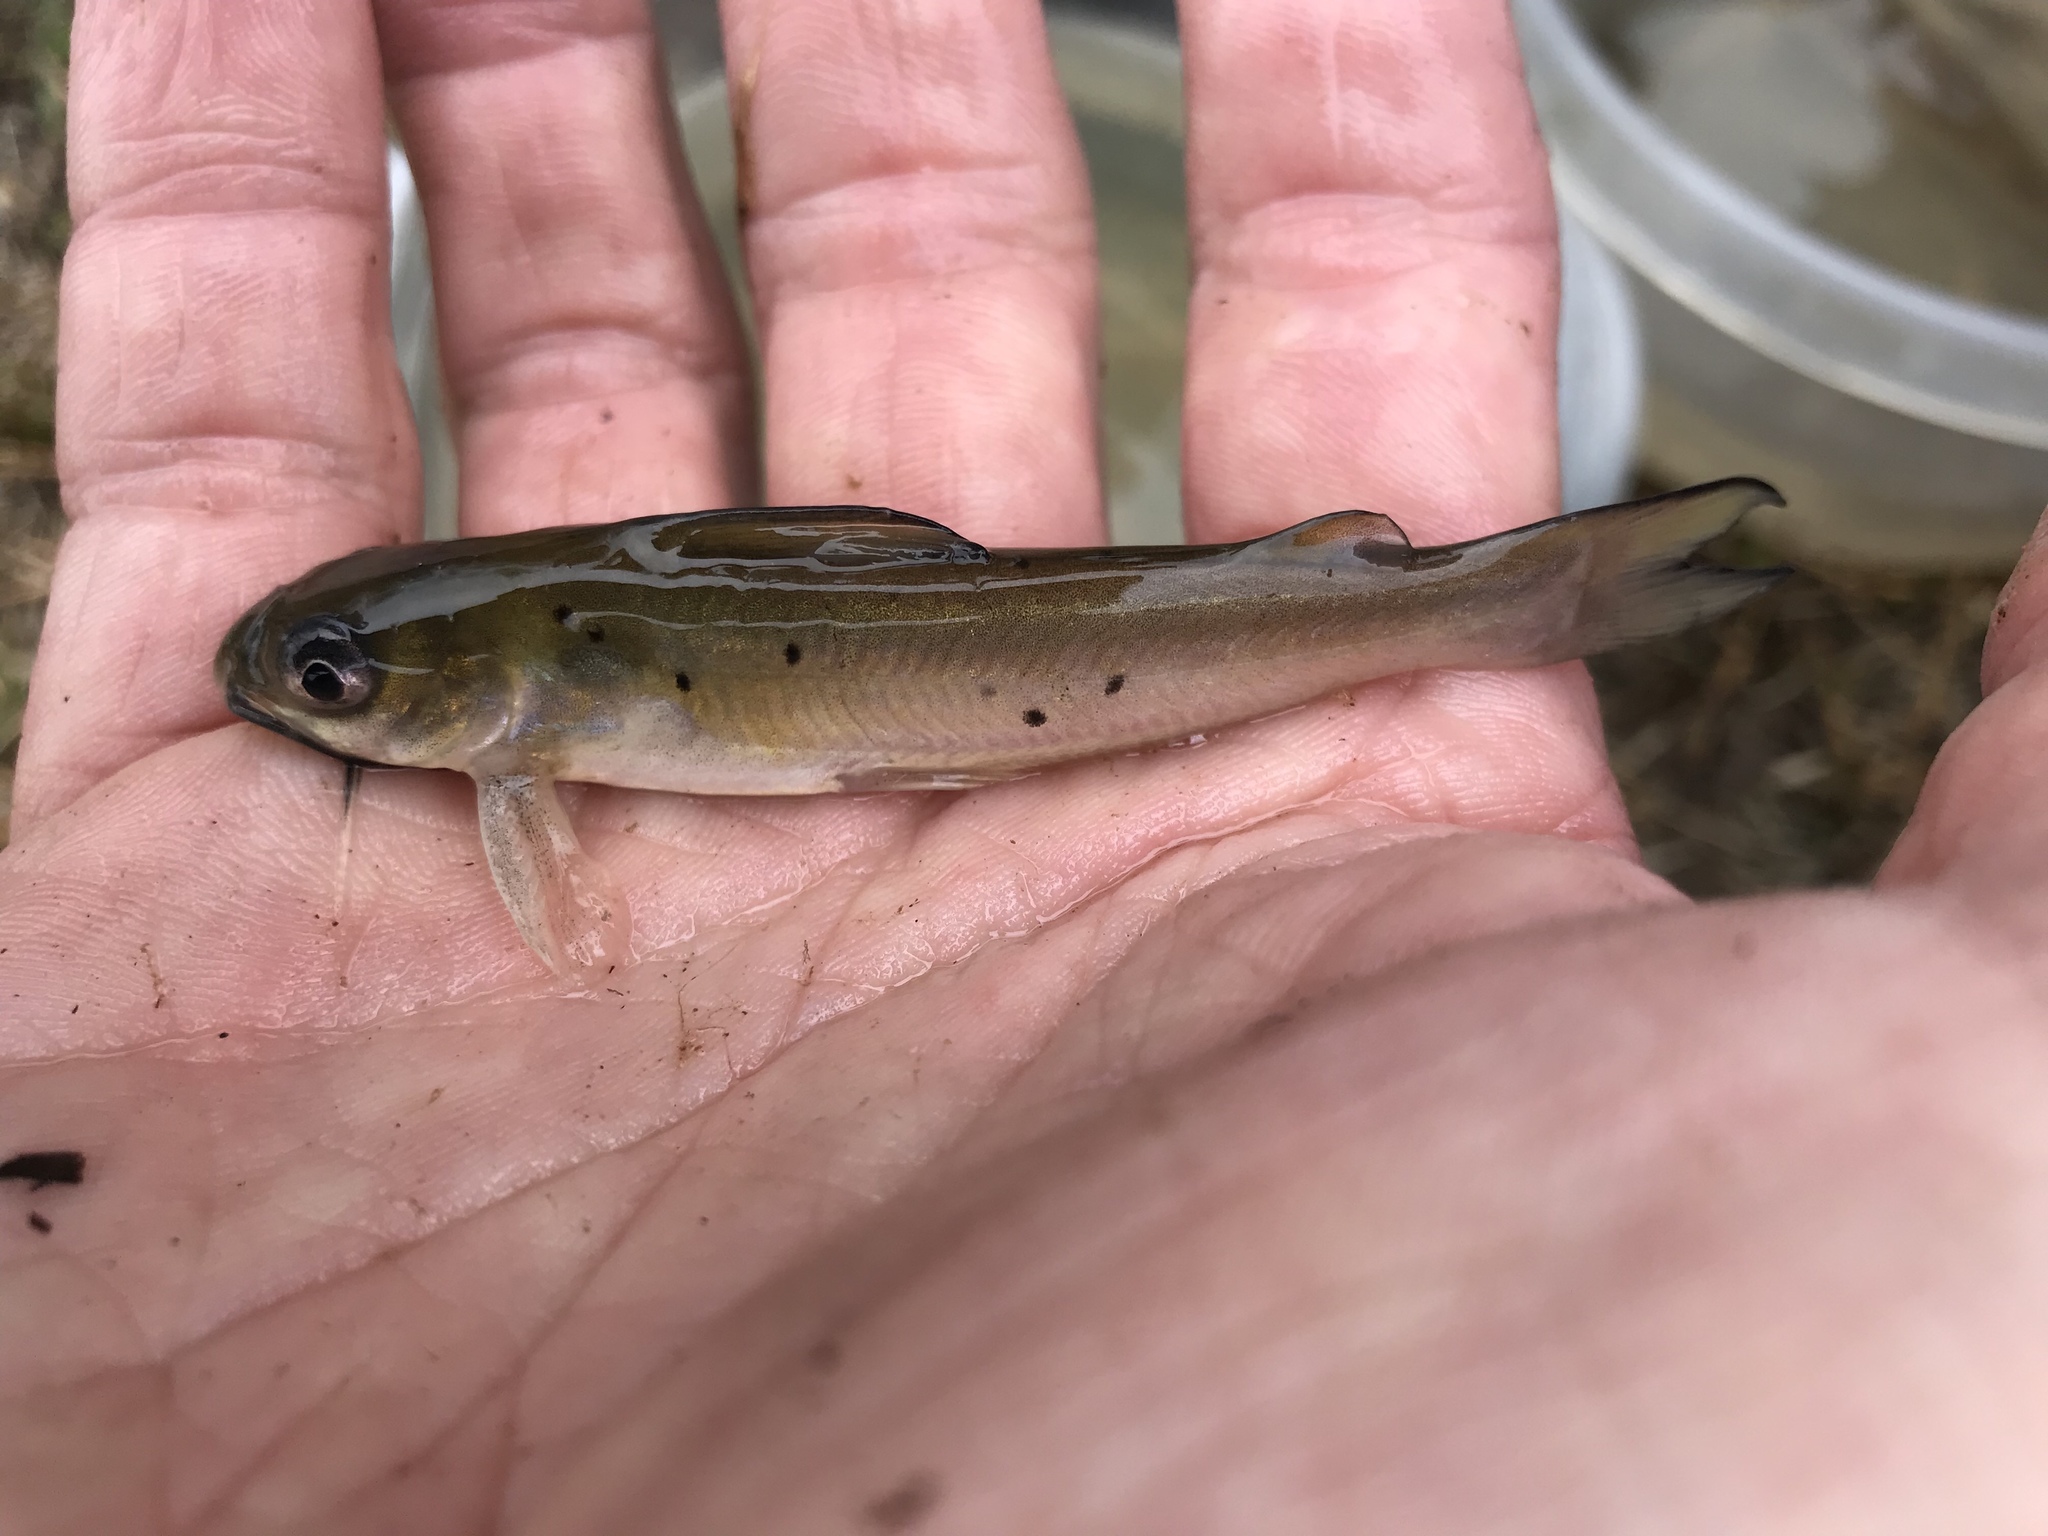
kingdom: Animalia
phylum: Chordata
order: Siluriformes
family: Ictaluridae
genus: Ictalurus
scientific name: Ictalurus punctatus
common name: Channel catfish
